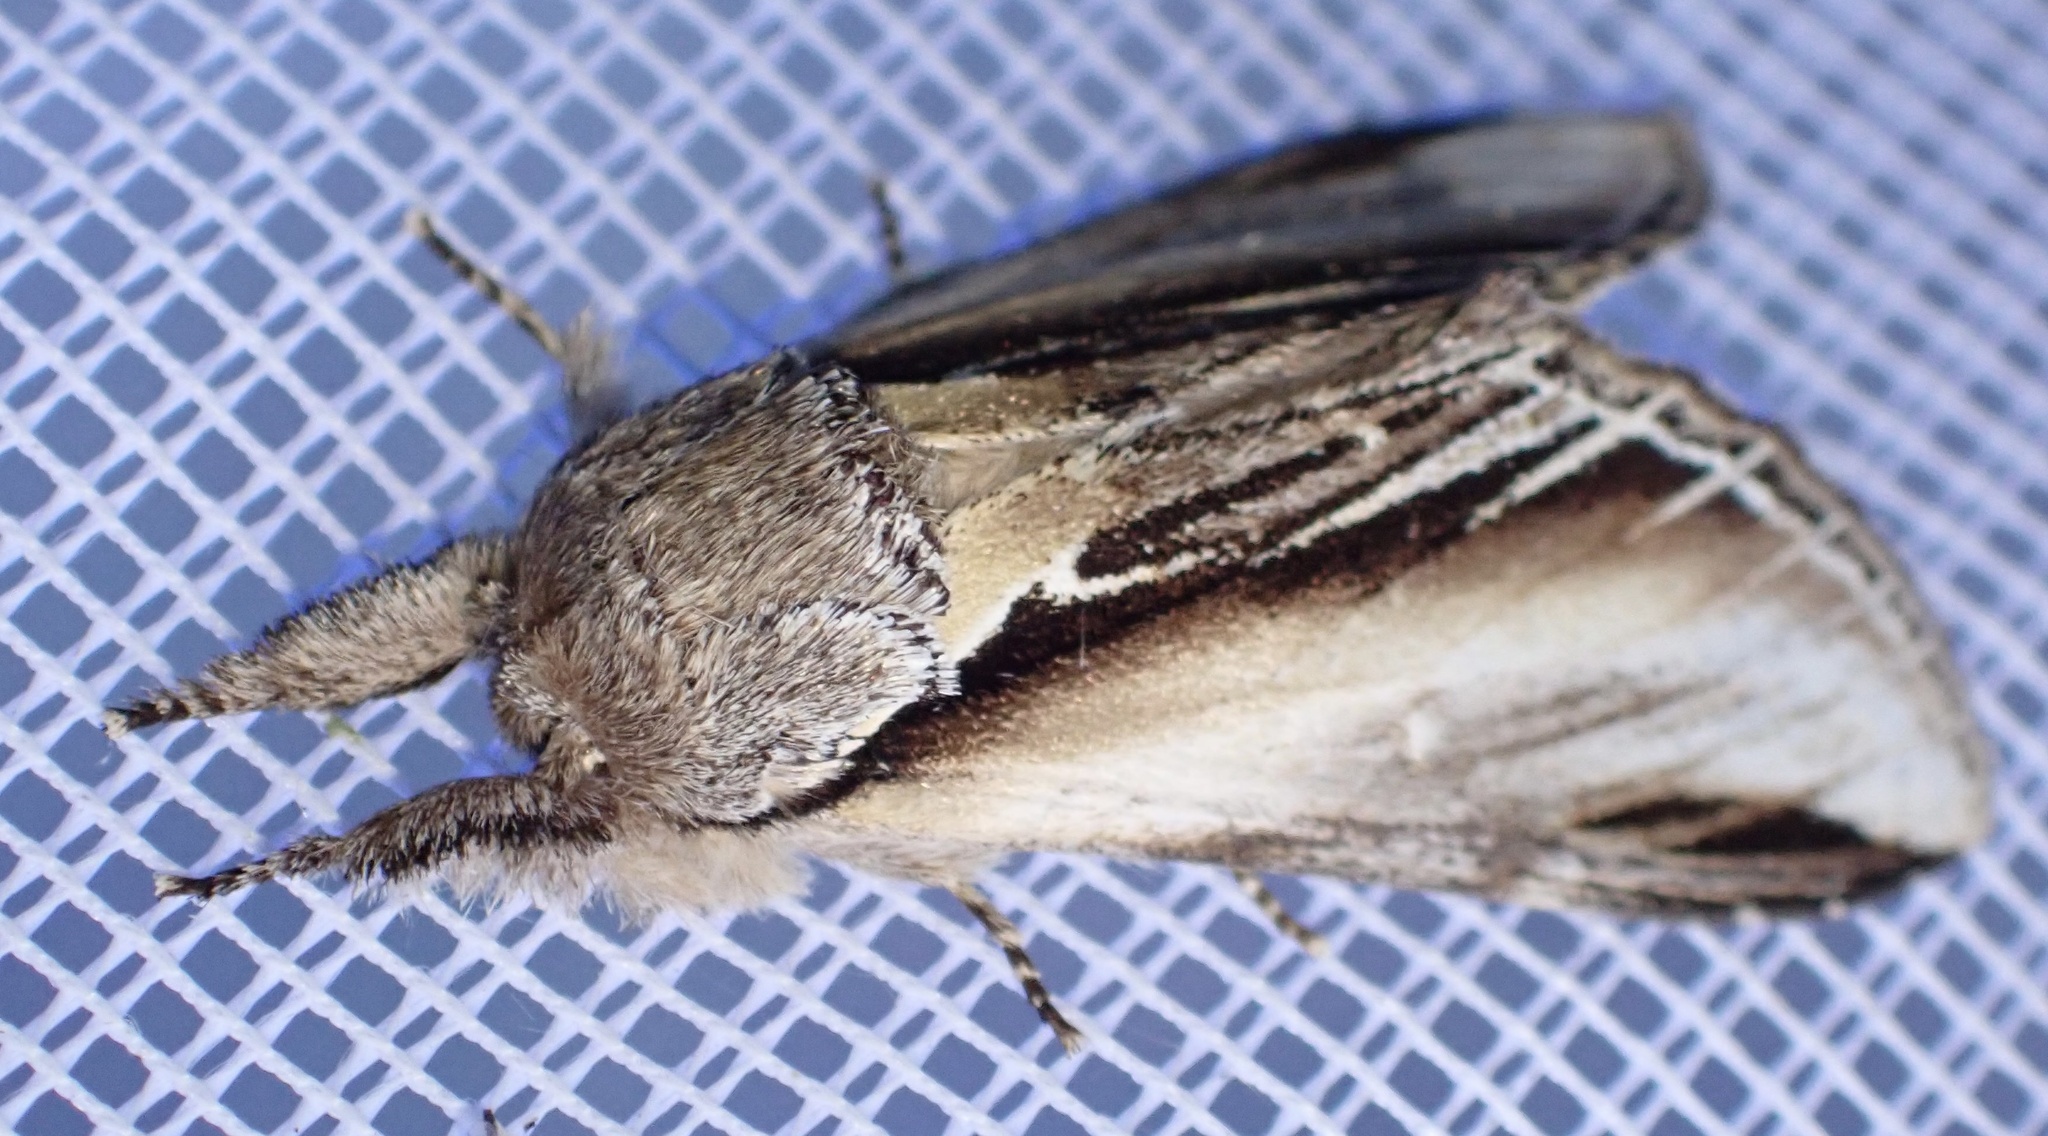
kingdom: Animalia
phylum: Arthropoda
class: Insecta
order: Lepidoptera
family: Notodontidae
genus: Pheosia
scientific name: Pheosia tremula
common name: Swallow prominent
